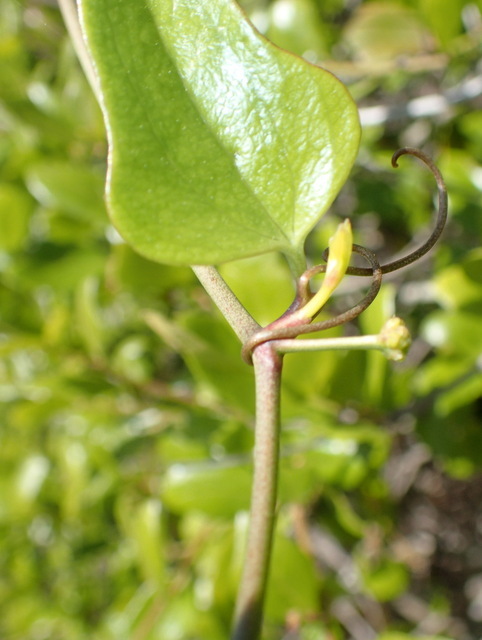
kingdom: Plantae
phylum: Tracheophyta
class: Liliopsida
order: Liliales
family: Smilacaceae
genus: Smilax
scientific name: Smilax auriculata
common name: Wild bamboo
